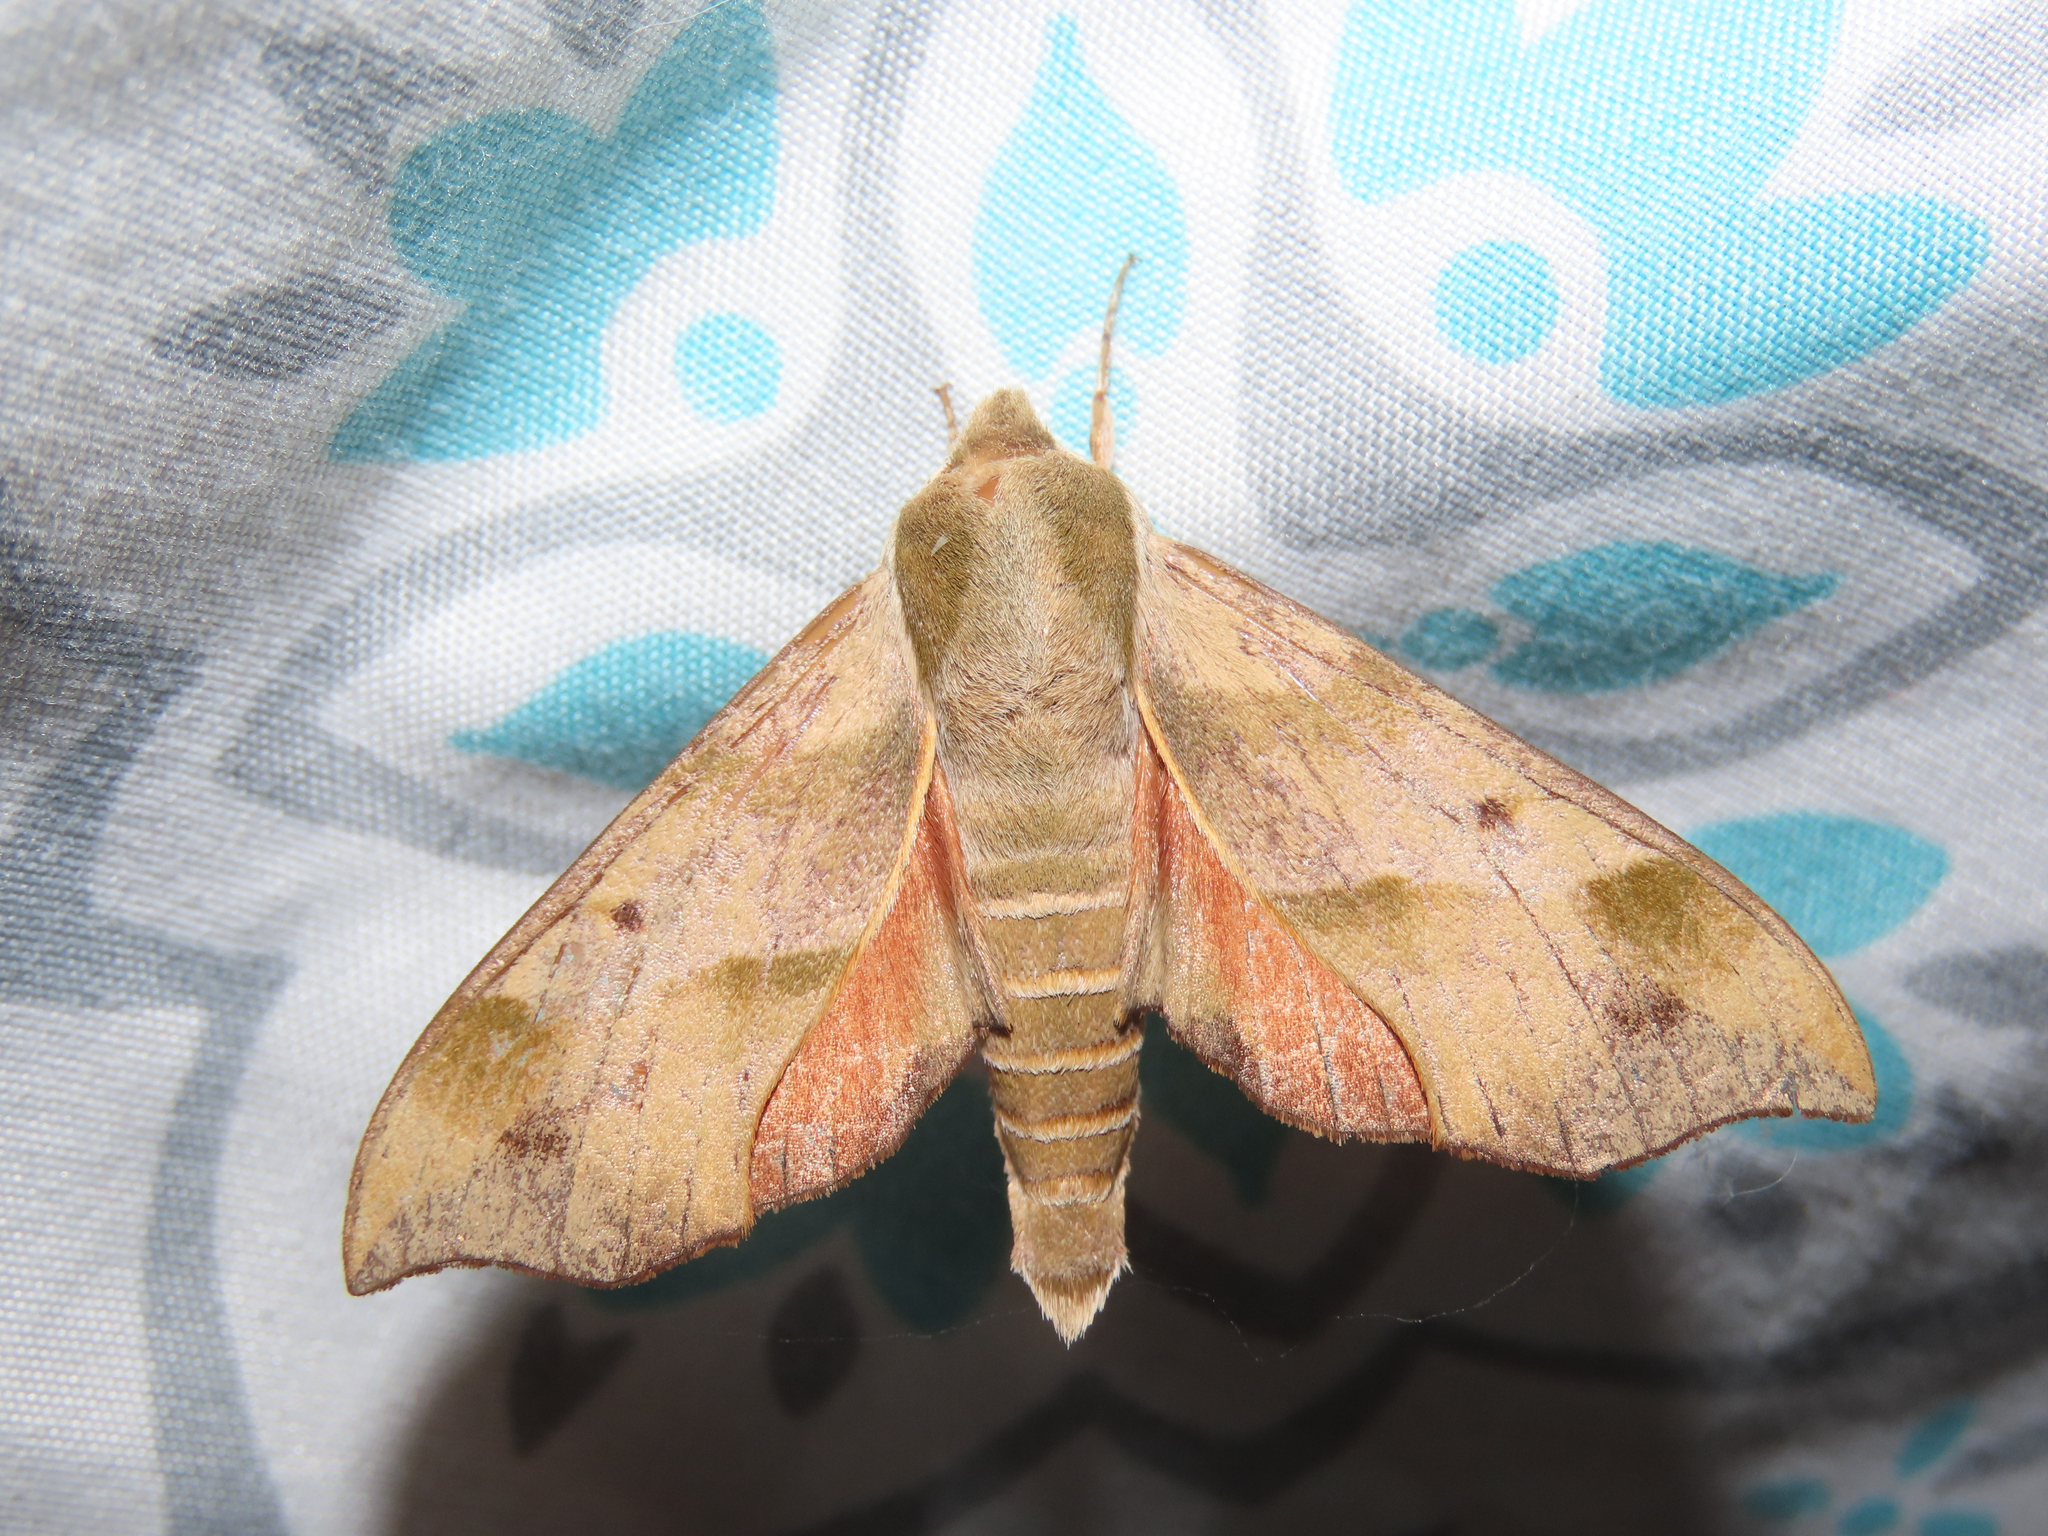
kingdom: Animalia
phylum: Arthropoda
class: Insecta
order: Lepidoptera
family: Sphingidae
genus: Darapsa
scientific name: Darapsa myron
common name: Hog sphinx
